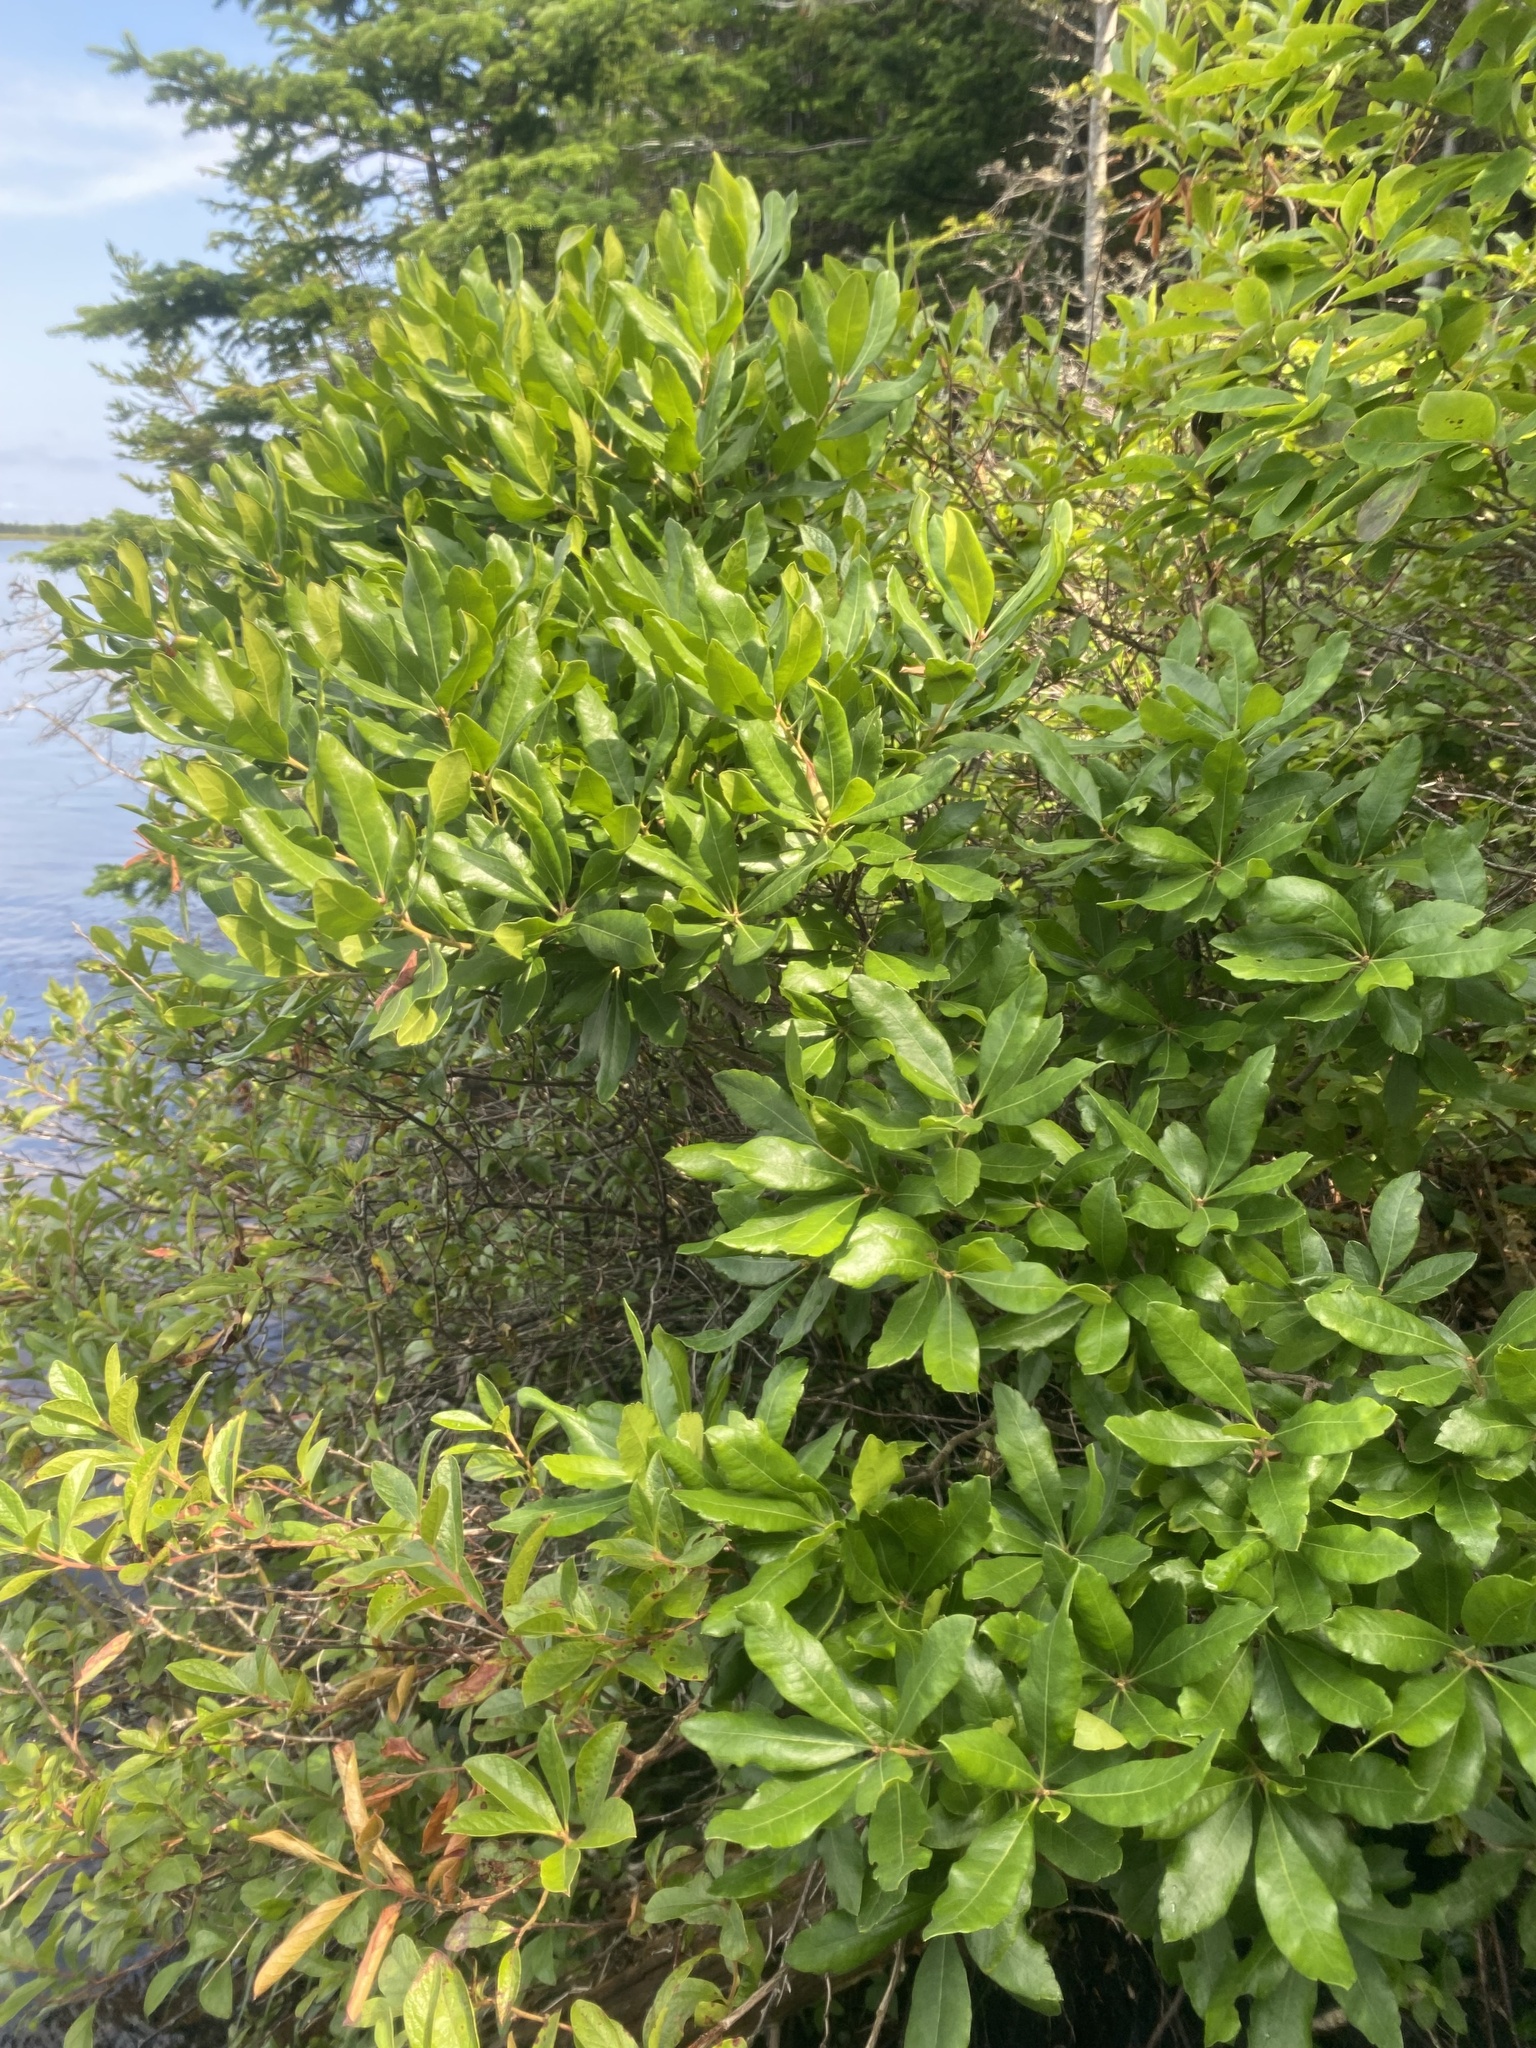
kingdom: Plantae
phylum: Tracheophyta
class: Magnoliopsida
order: Fagales
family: Myricaceae
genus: Morella
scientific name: Morella pensylvanica
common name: Northern bayberry
